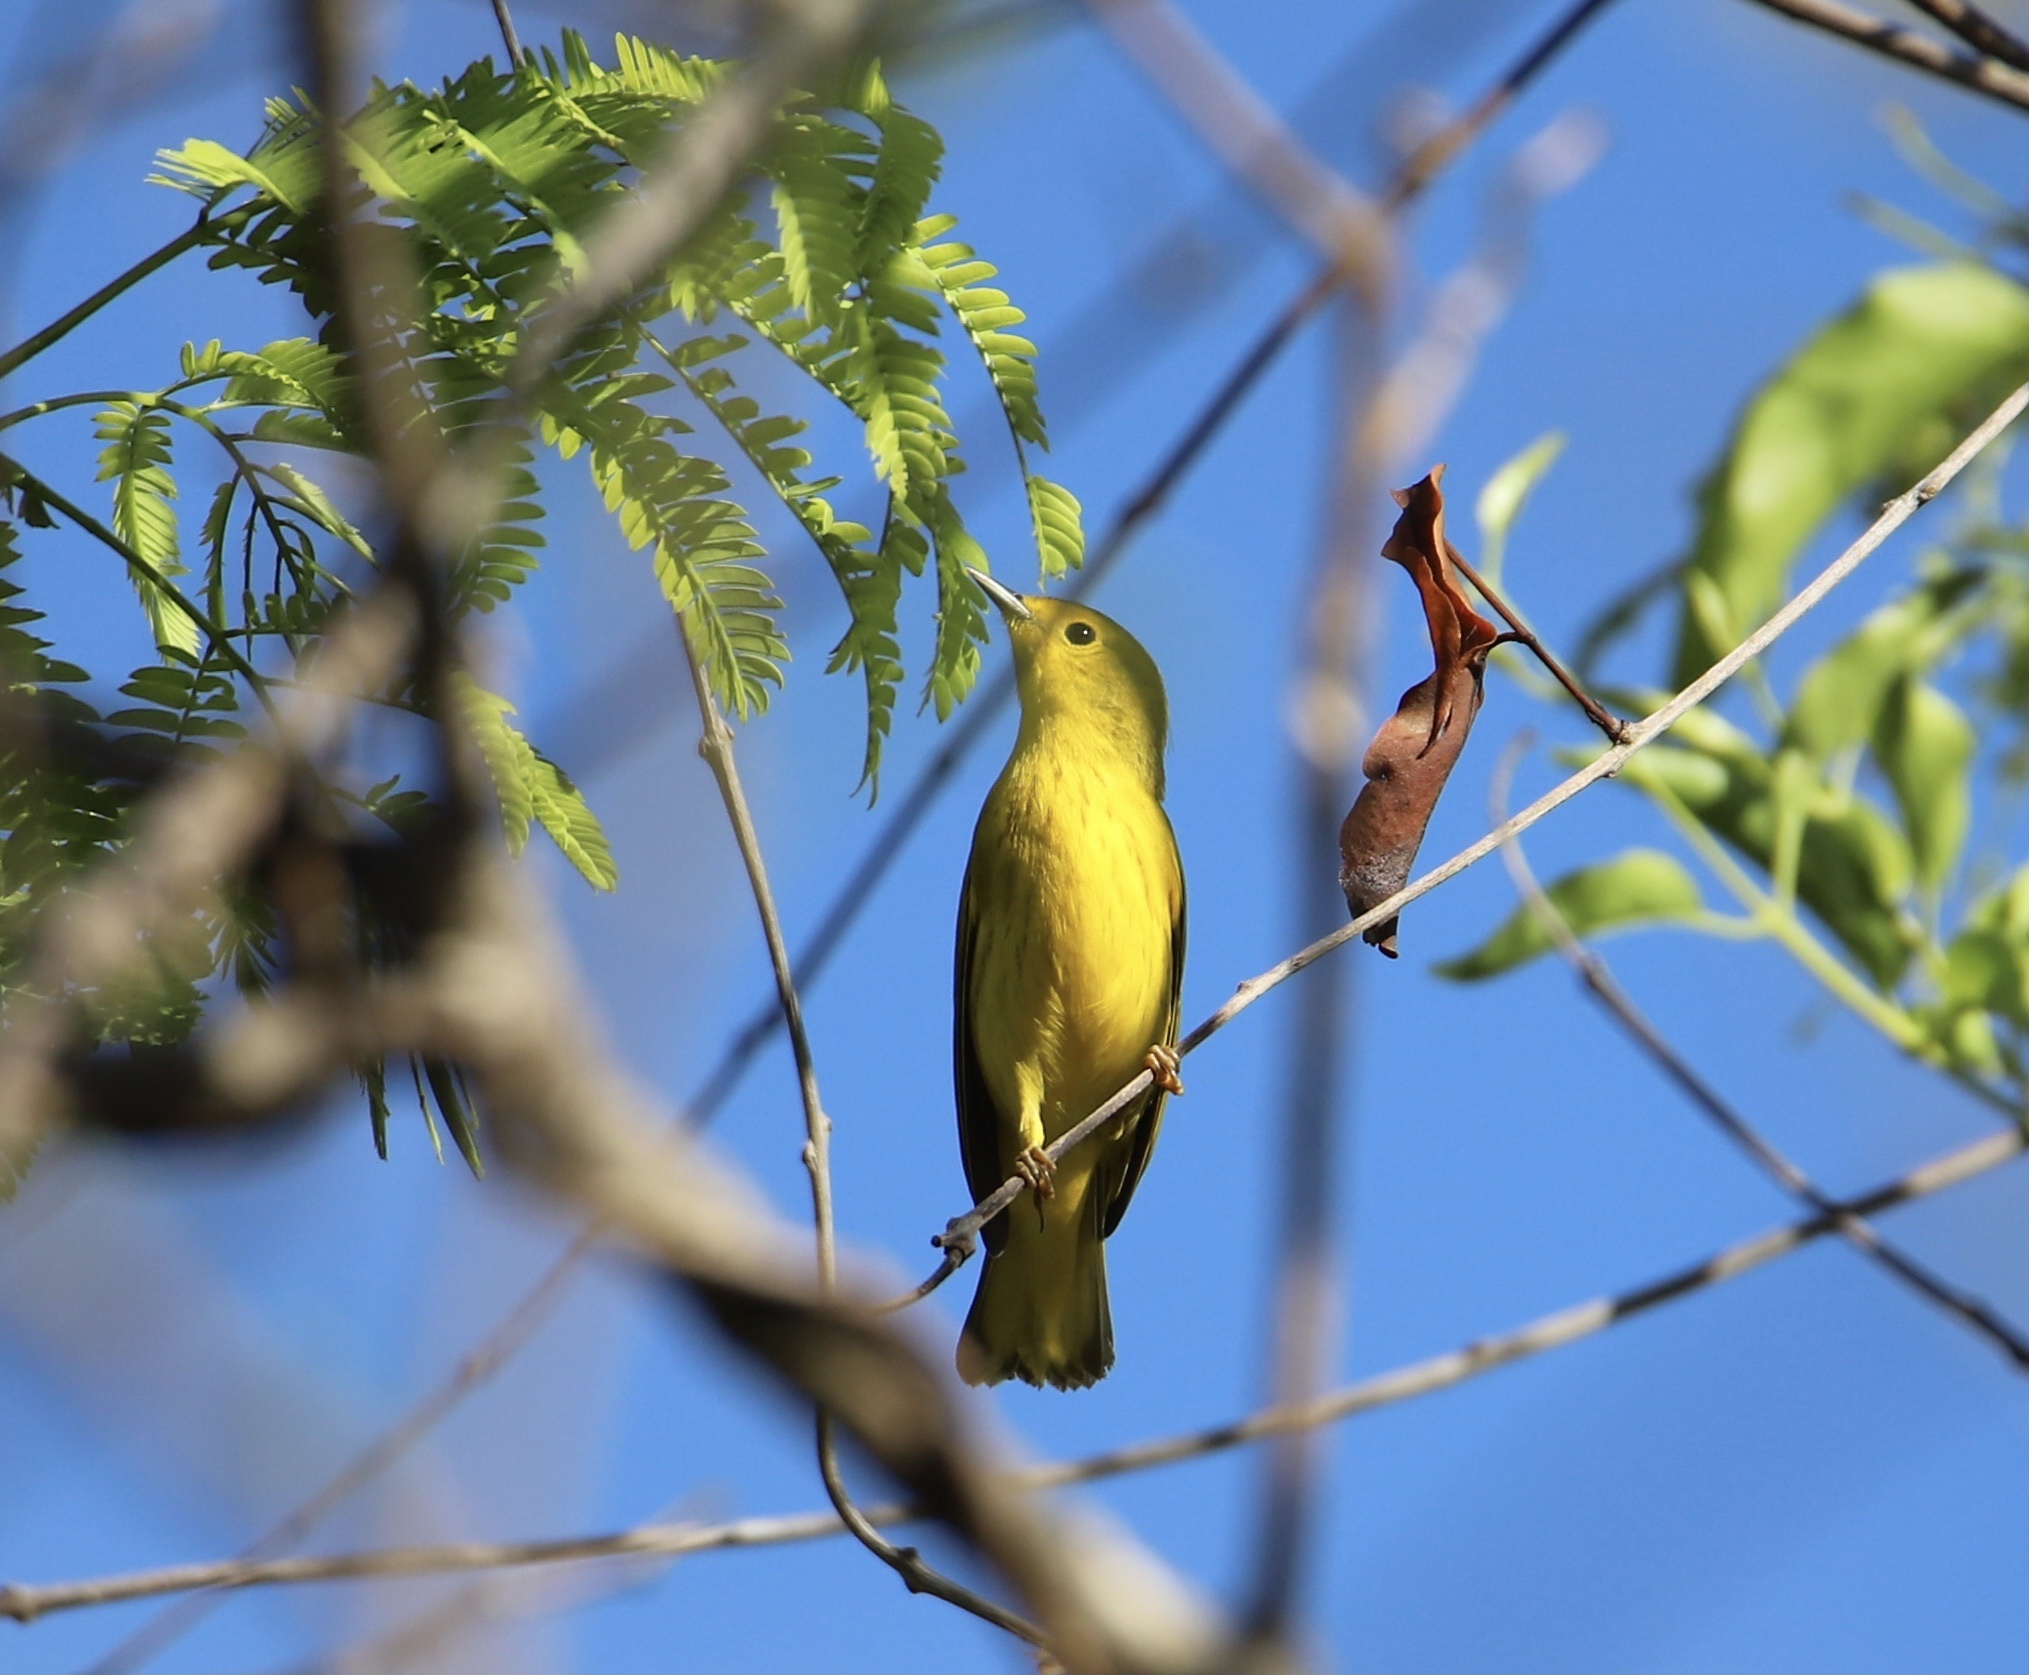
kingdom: Animalia
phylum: Chordata
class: Aves
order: Passeriformes
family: Parulidae
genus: Setophaga
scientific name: Setophaga petechia
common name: Yellow warbler
